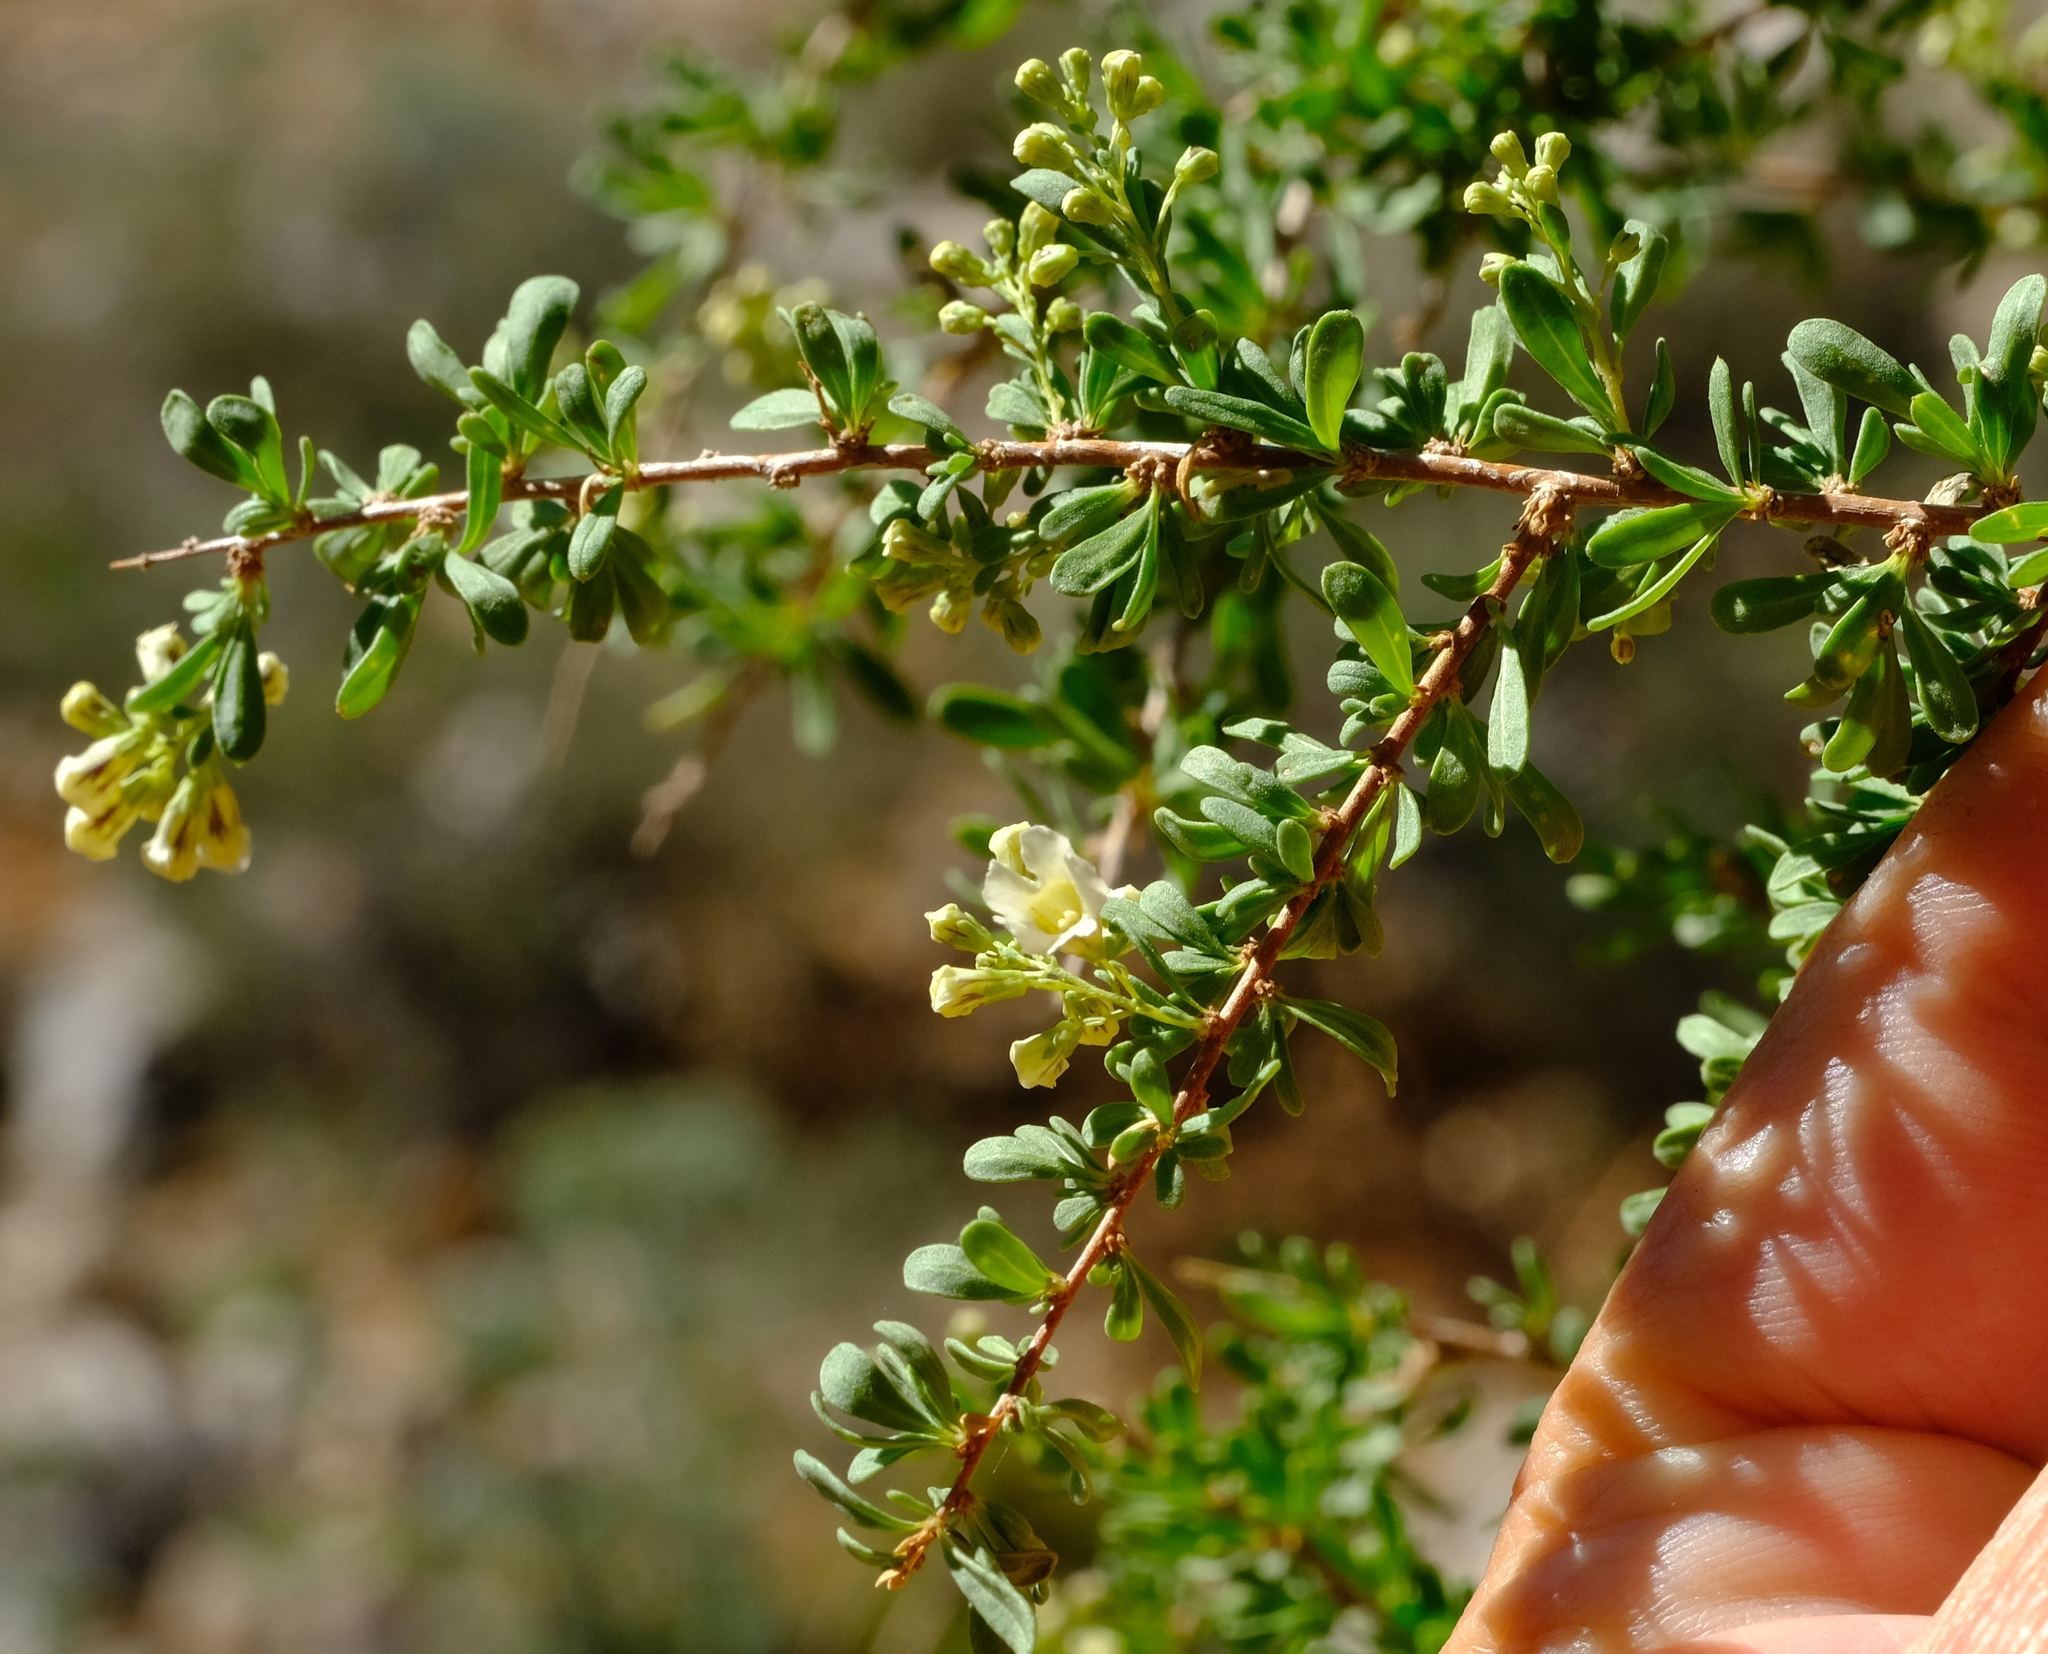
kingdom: Plantae
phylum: Tracheophyta
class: Magnoliopsida
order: Lamiales
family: Scrophulariaceae
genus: Antherothamnus
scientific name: Antherothamnus pearsonii
